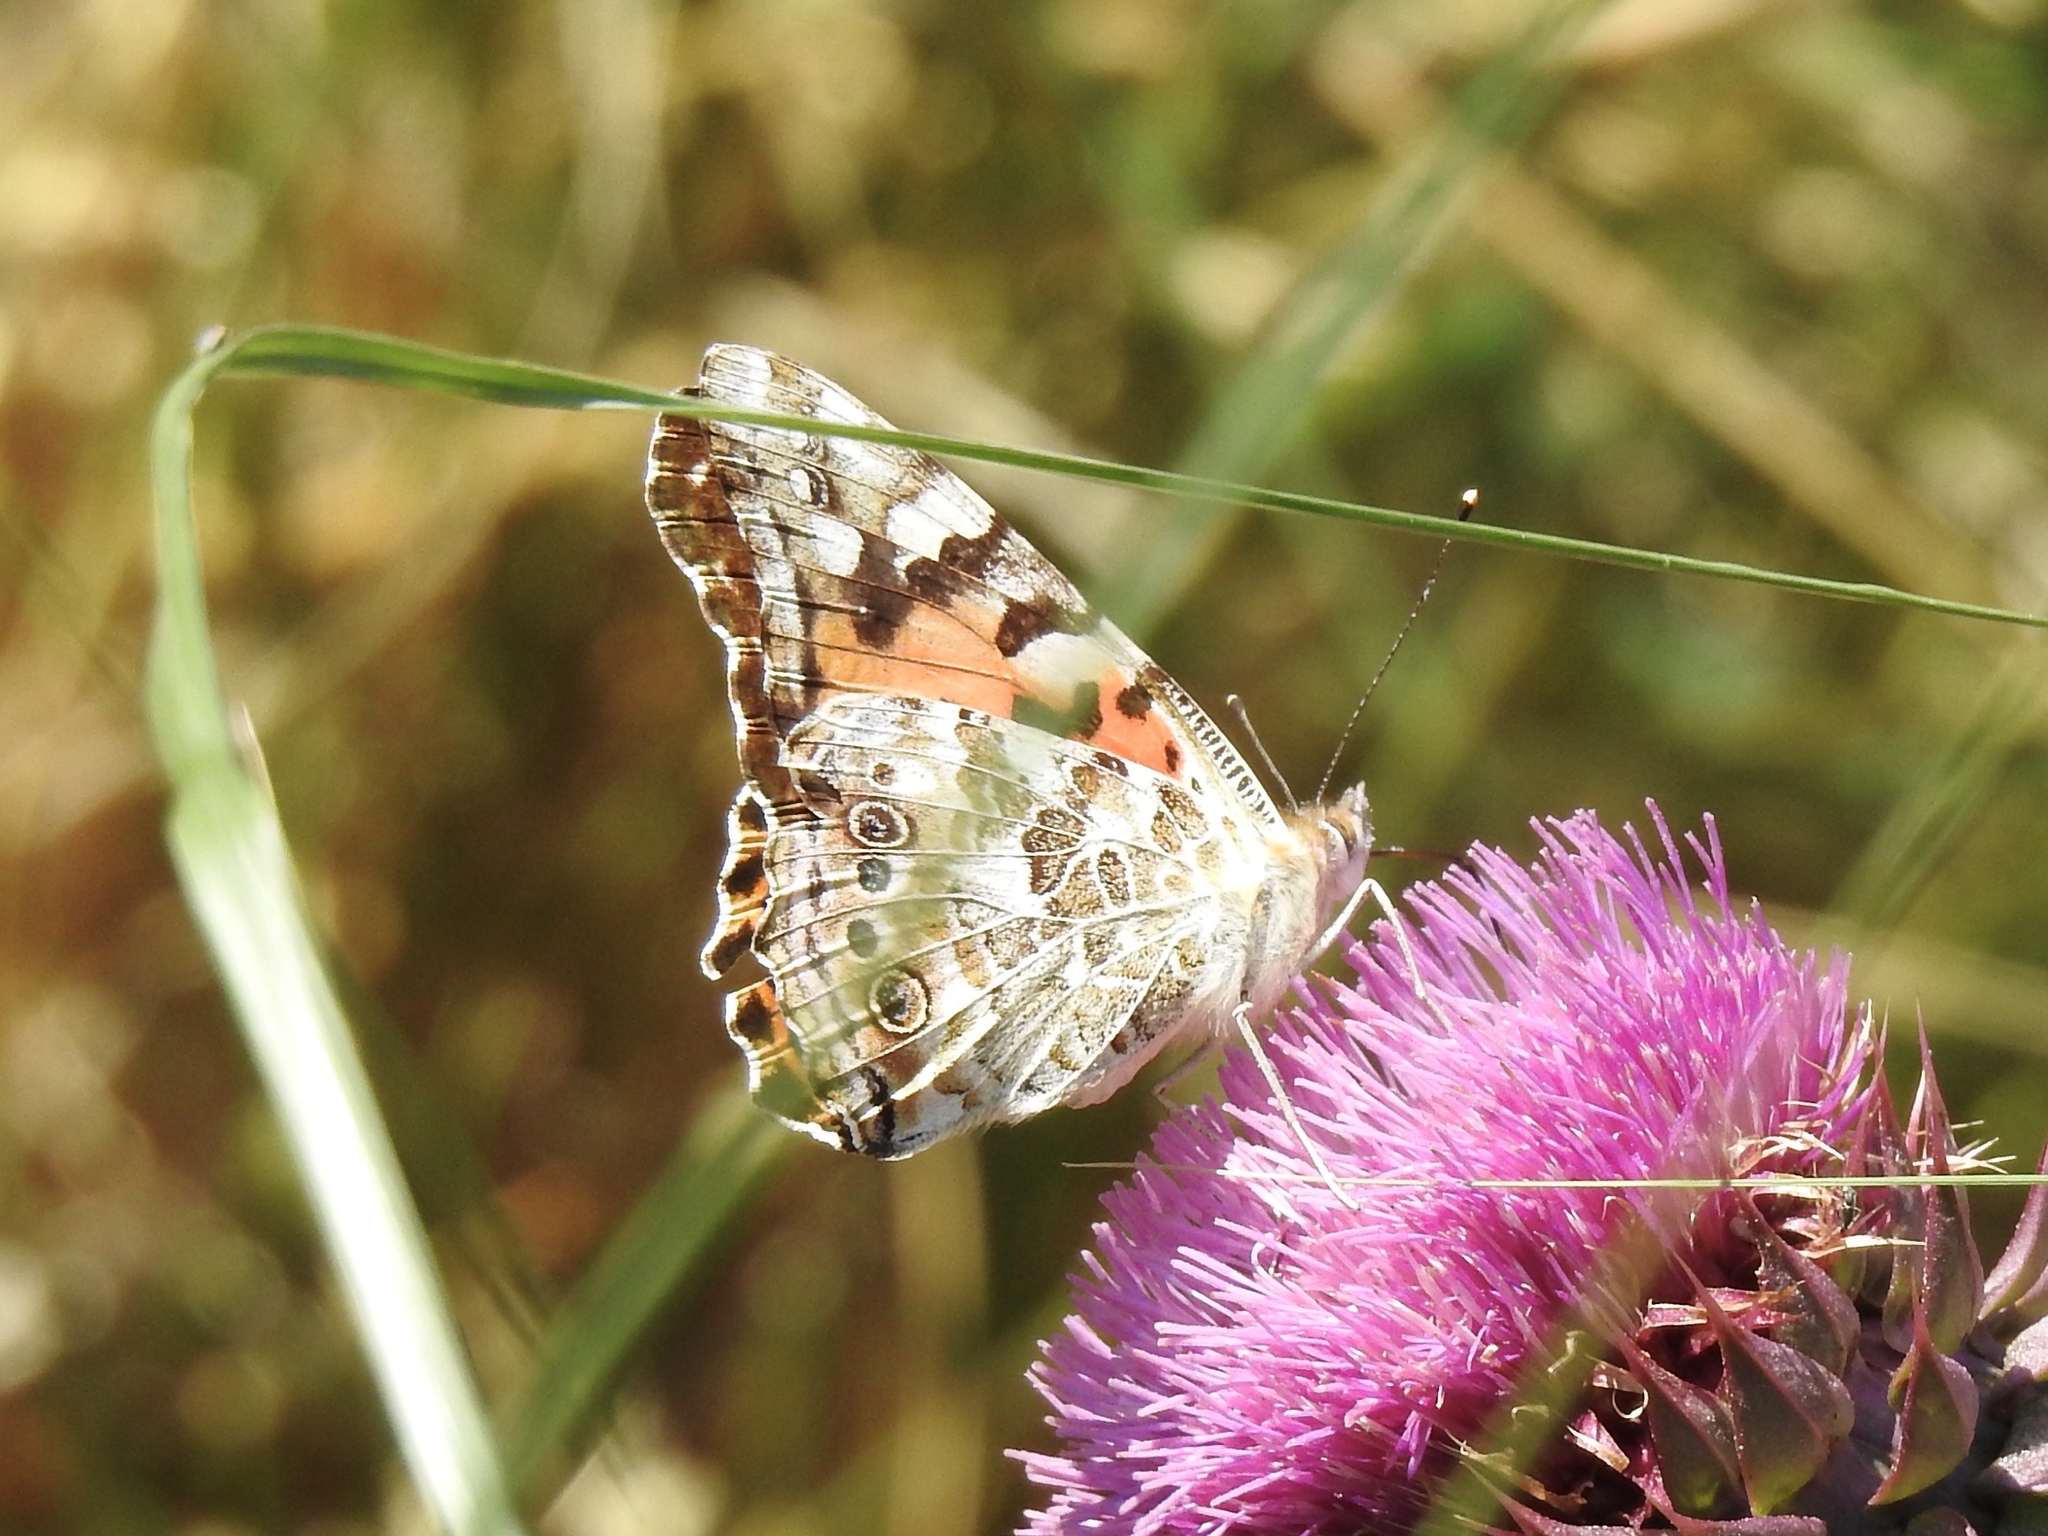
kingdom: Animalia
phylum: Arthropoda
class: Insecta
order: Lepidoptera
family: Nymphalidae
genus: Vanessa
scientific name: Vanessa cardui
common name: Painted lady
